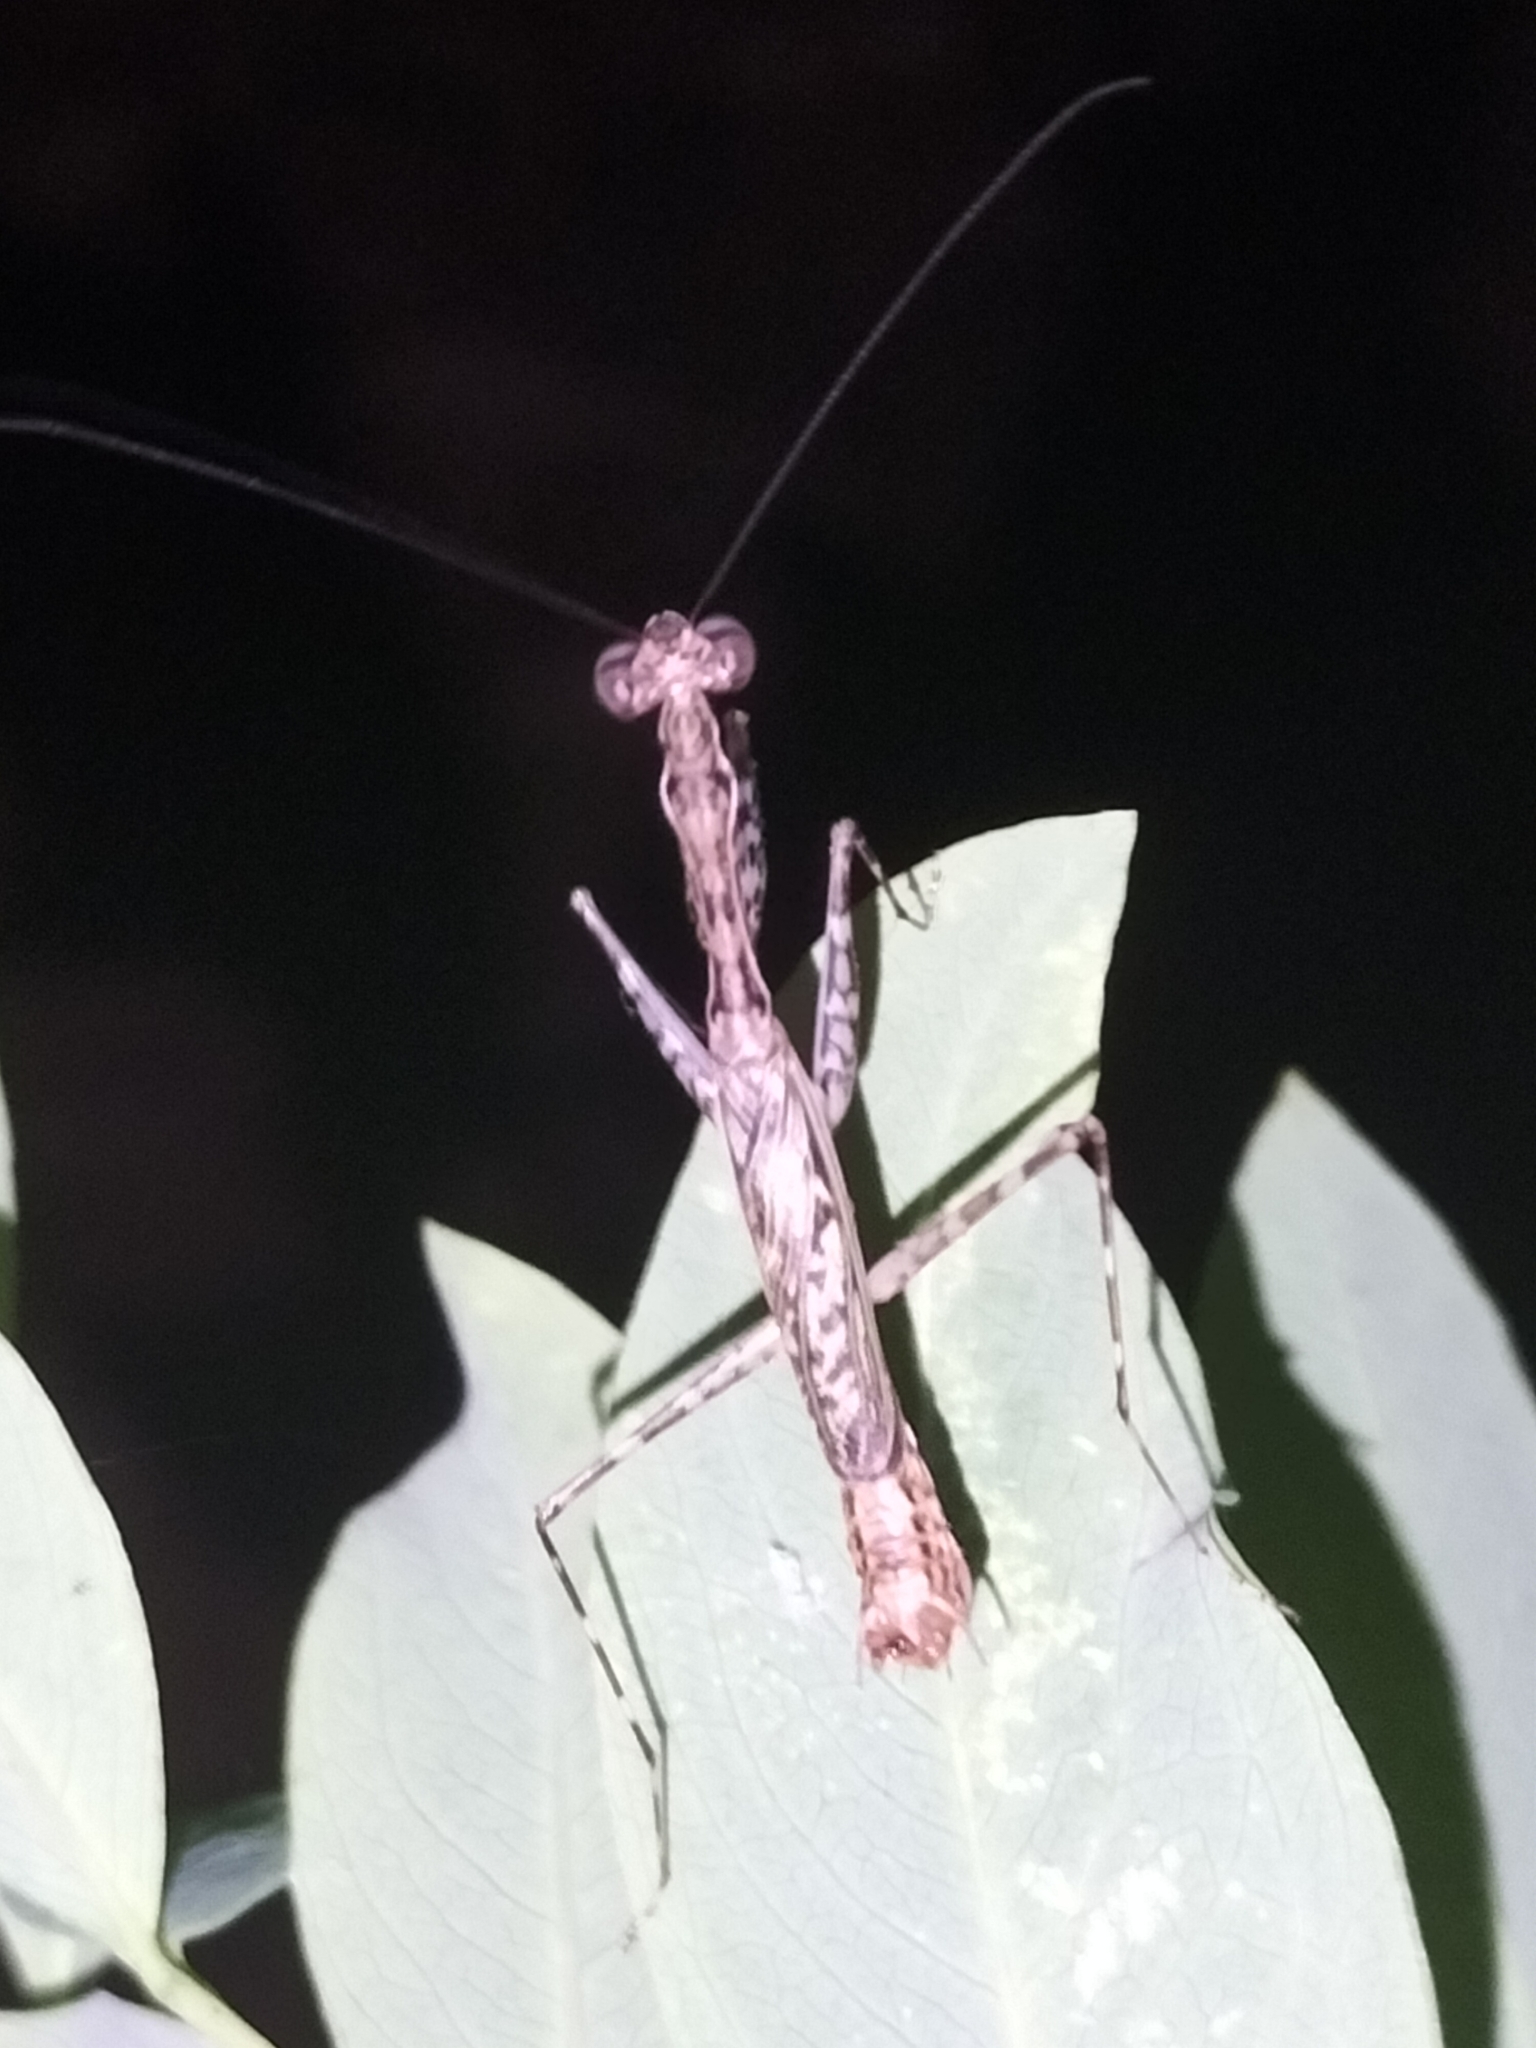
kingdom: Animalia
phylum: Arthropoda
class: Insecta
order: Mantodea
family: Nanomantidae
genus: Ciulfina
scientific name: Ciulfina rentzi
